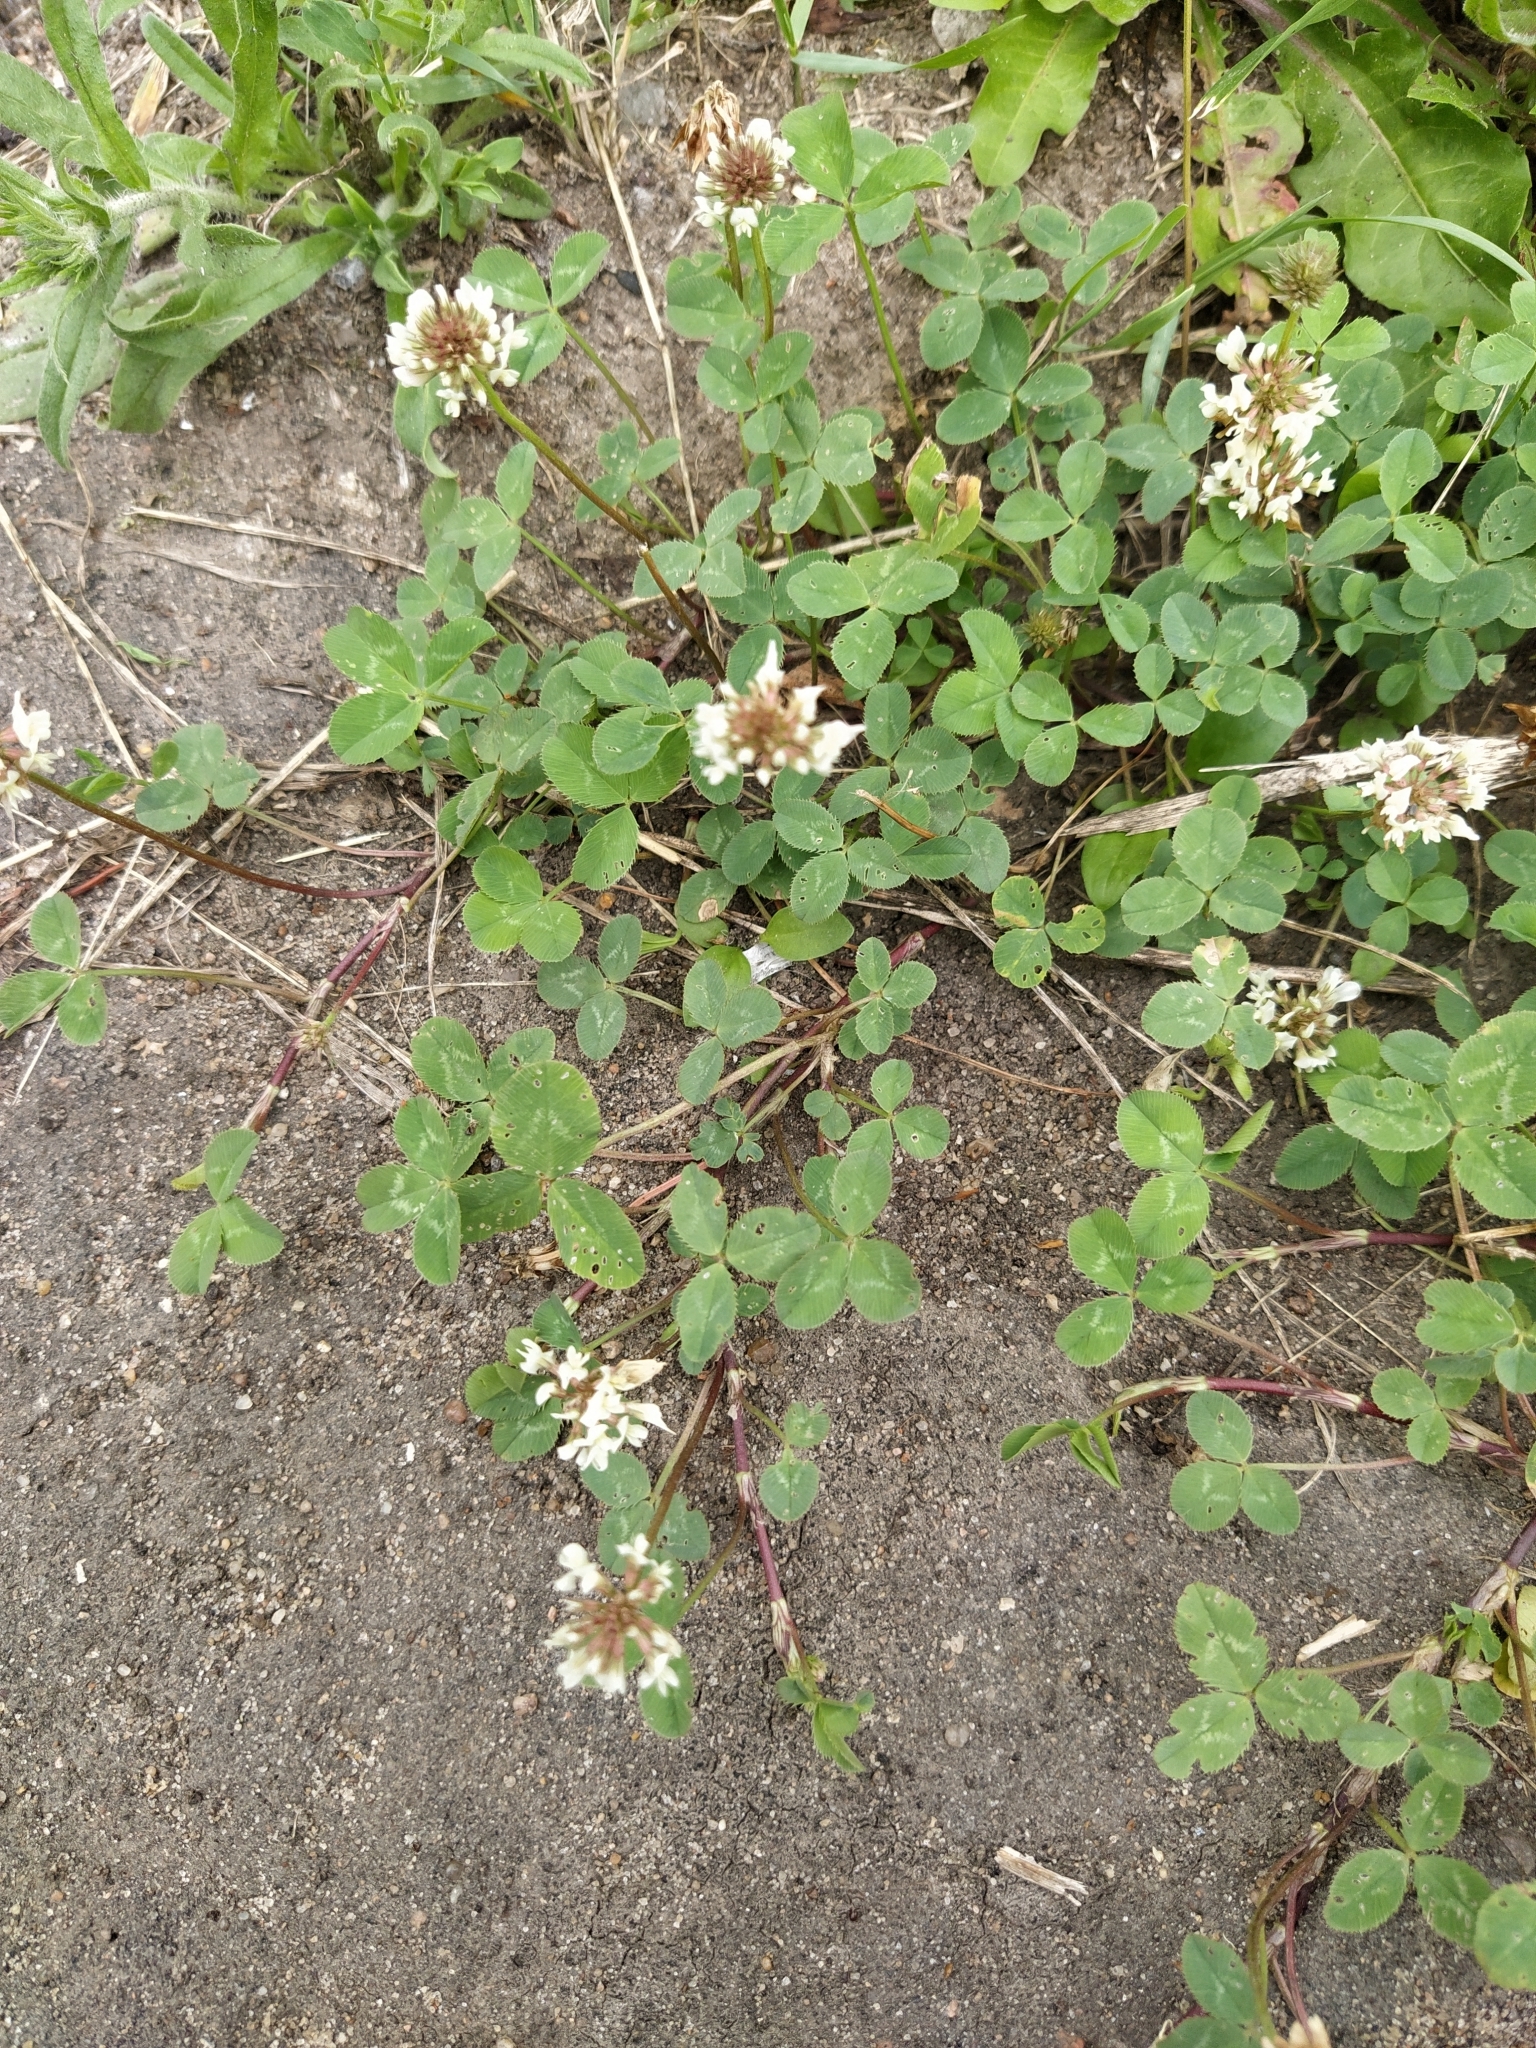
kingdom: Plantae
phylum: Tracheophyta
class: Magnoliopsida
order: Fabales
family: Fabaceae
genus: Trifolium
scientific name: Trifolium repens
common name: White clover
